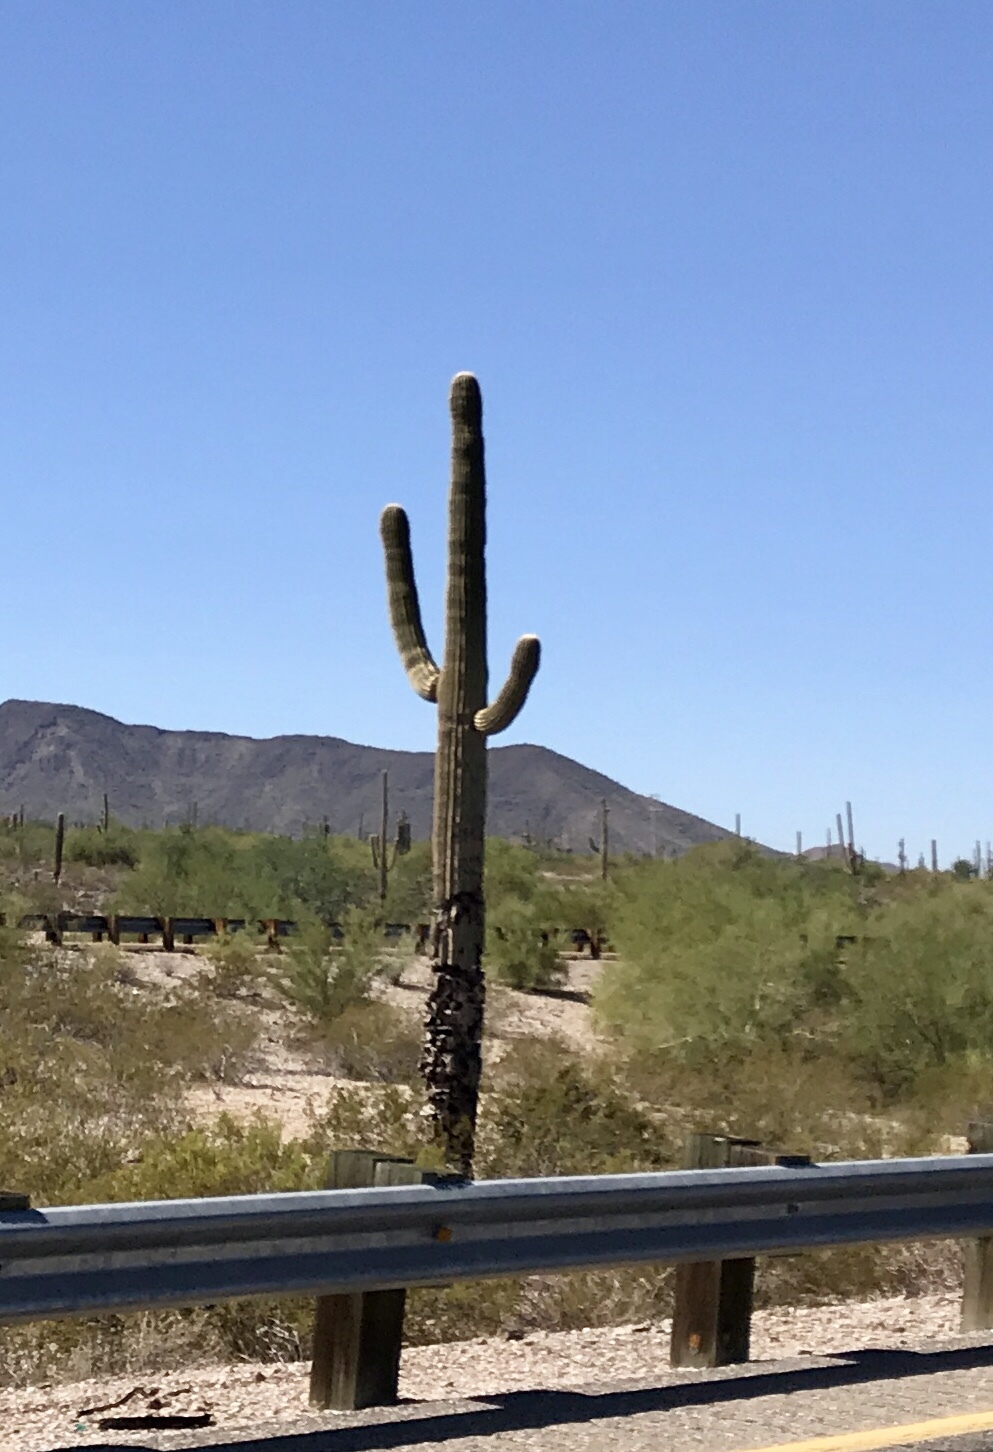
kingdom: Plantae
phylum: Tracheophyta
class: Magnoliopsida
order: Caryophyllales
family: Cactaceae
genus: Carnegiea
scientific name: Carnegiea gigantea
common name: Saguaro
